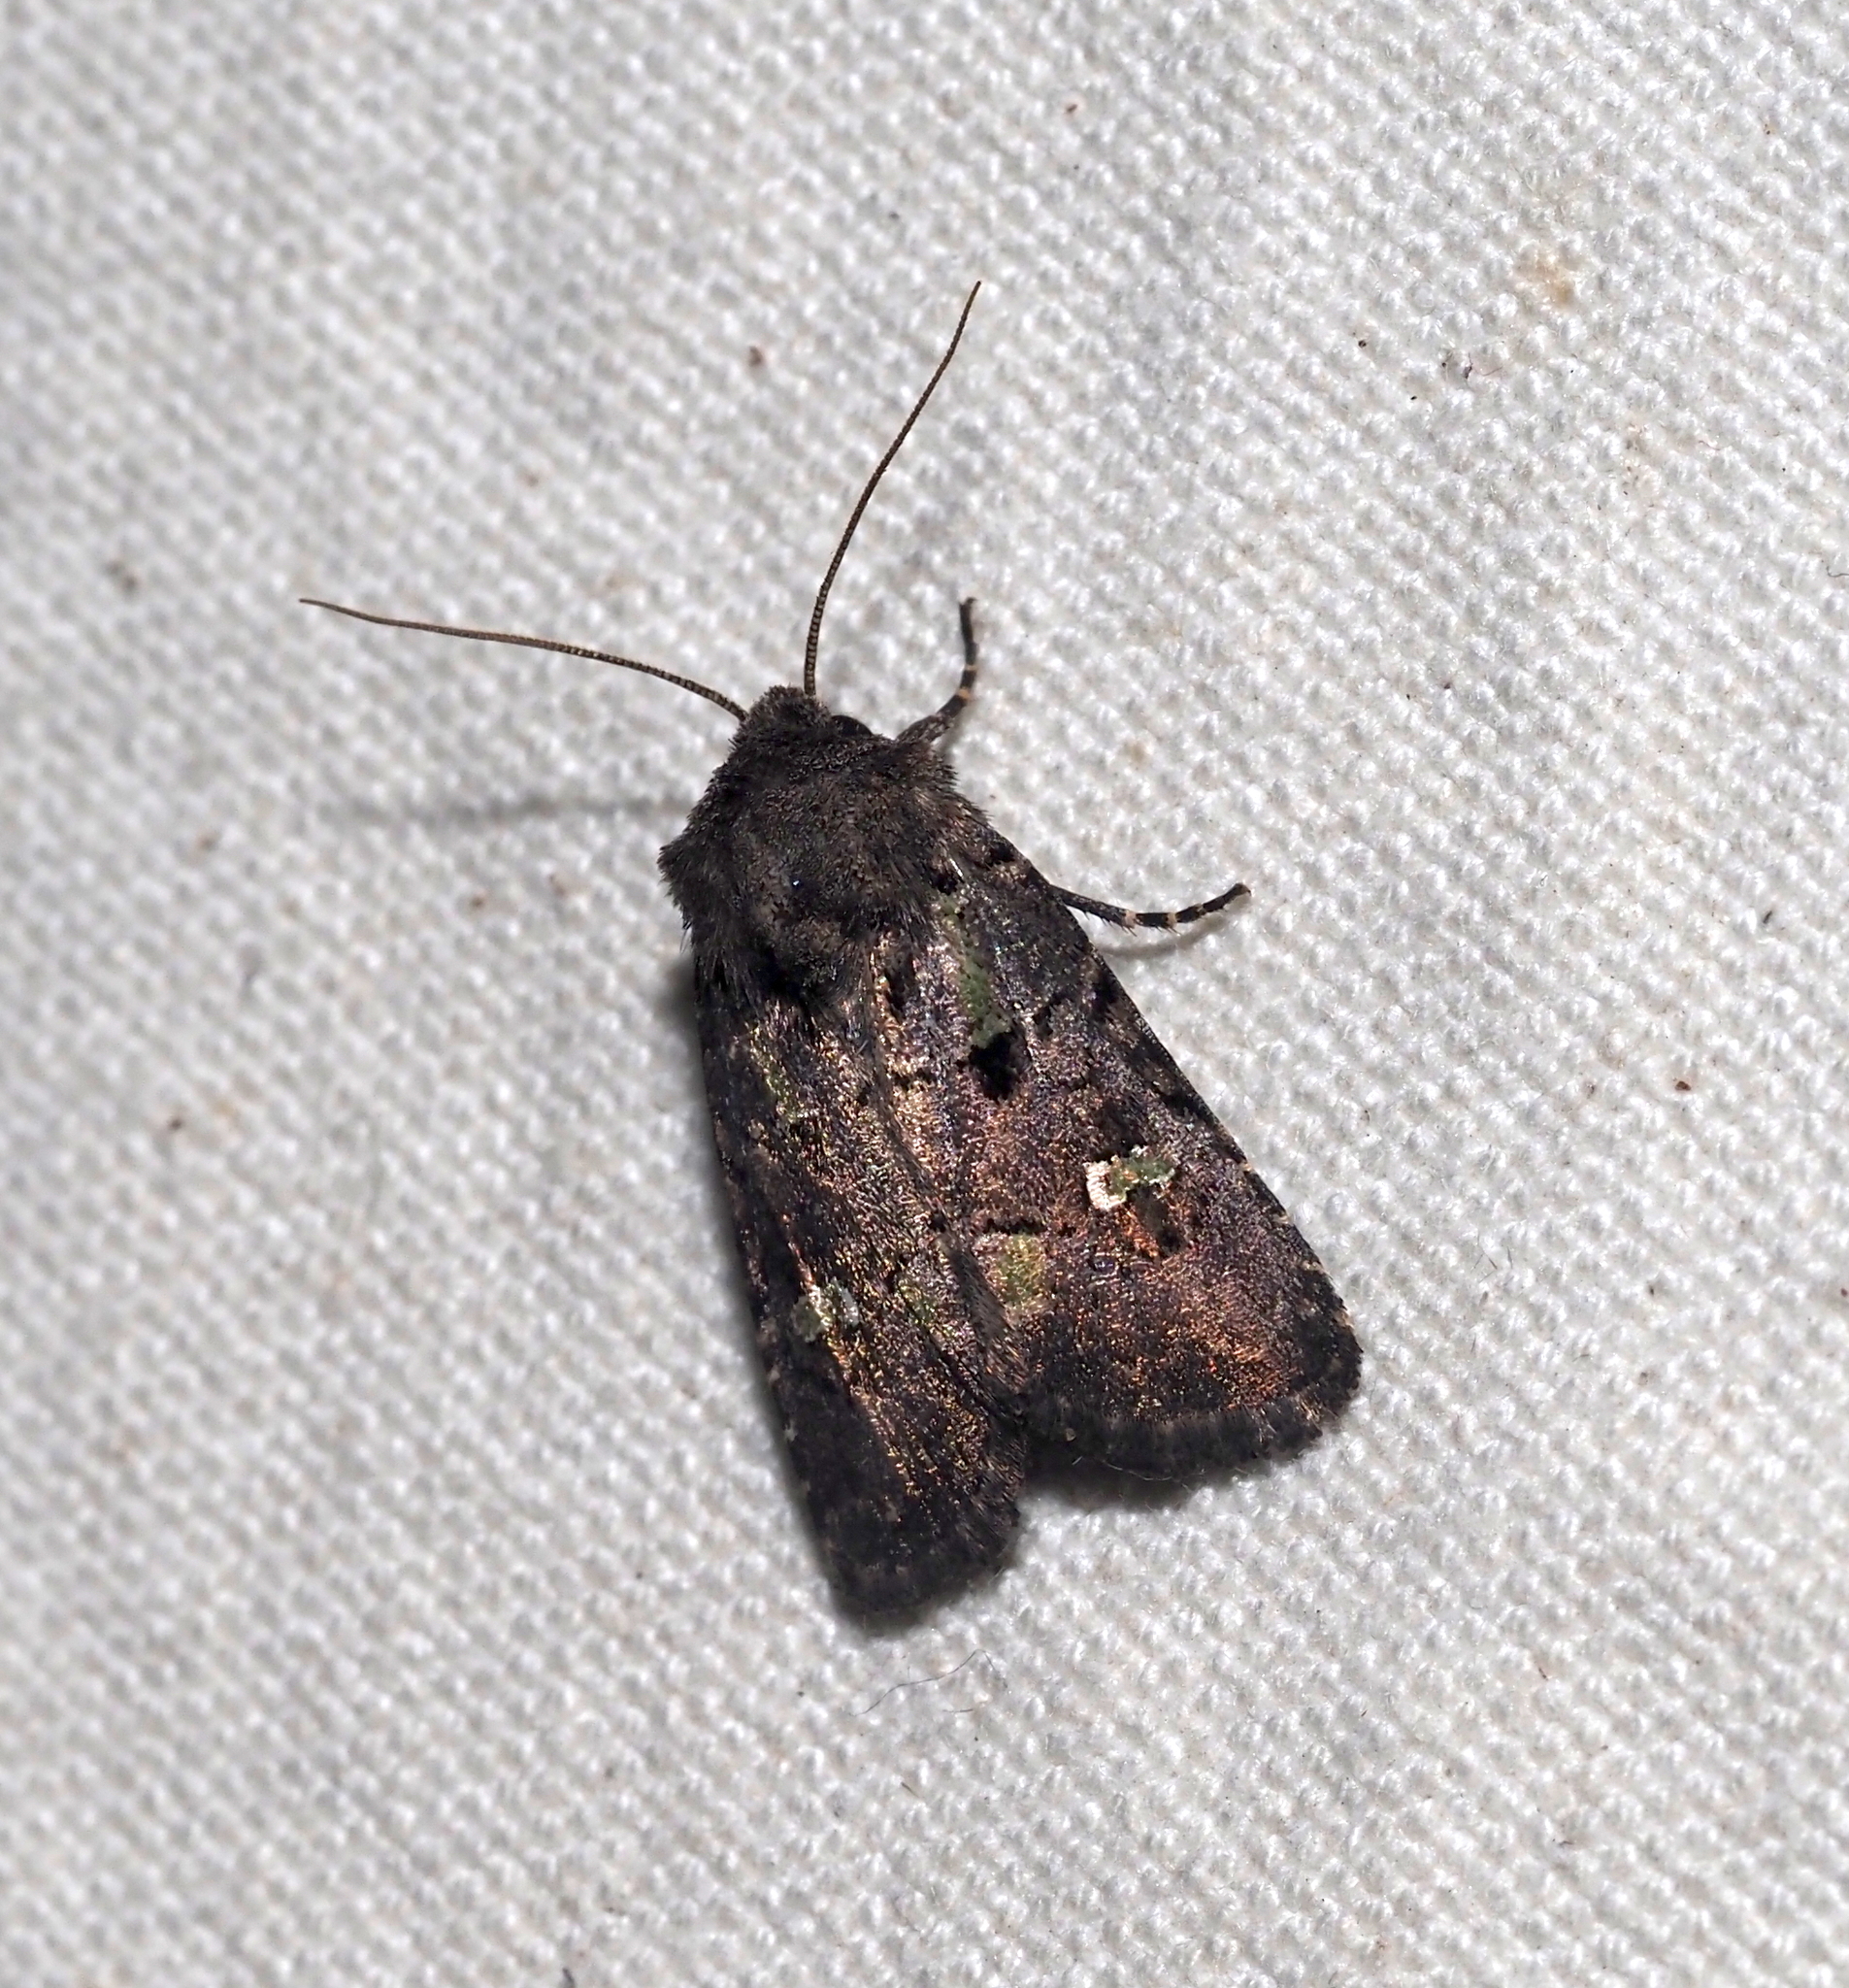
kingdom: Animalia
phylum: Arthropoda
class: Insecta
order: Lepidoptera
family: Noctuidae
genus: Lacinipolia
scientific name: Lacinipolia renigera
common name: Kidney-spotted minor
